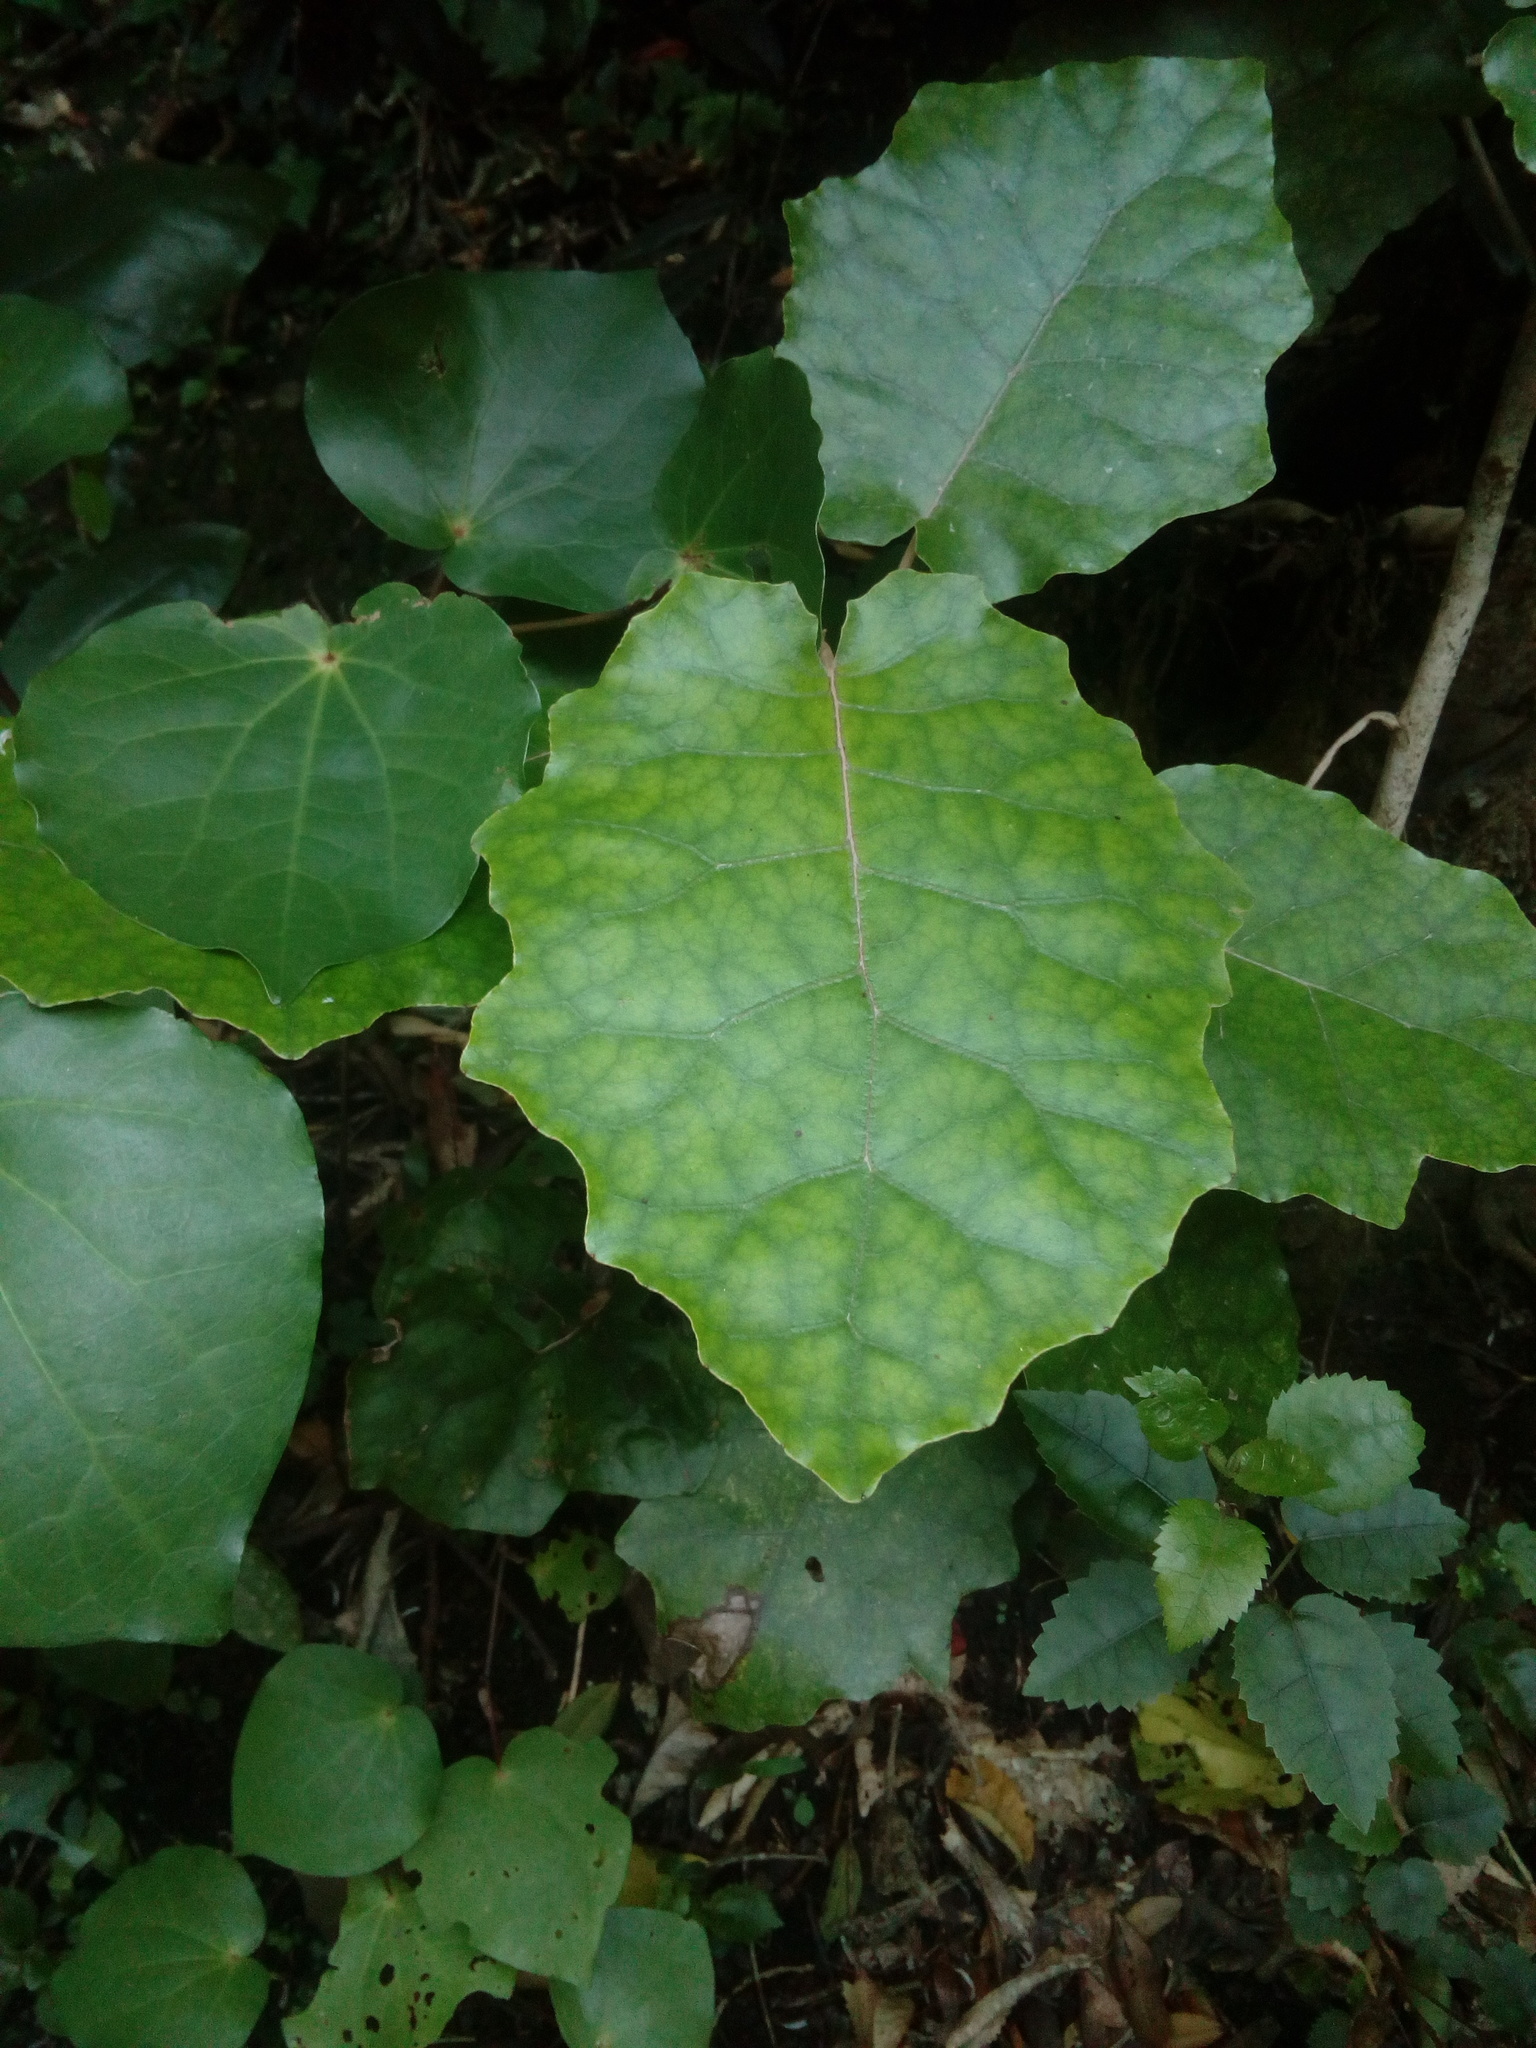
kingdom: Plantae
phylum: Tracheophyta
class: Magnoliopsida
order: Asterales
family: Asteraceae
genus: Brachyglottis
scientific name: Brachyglottis repanda
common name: Hedge ragwort
